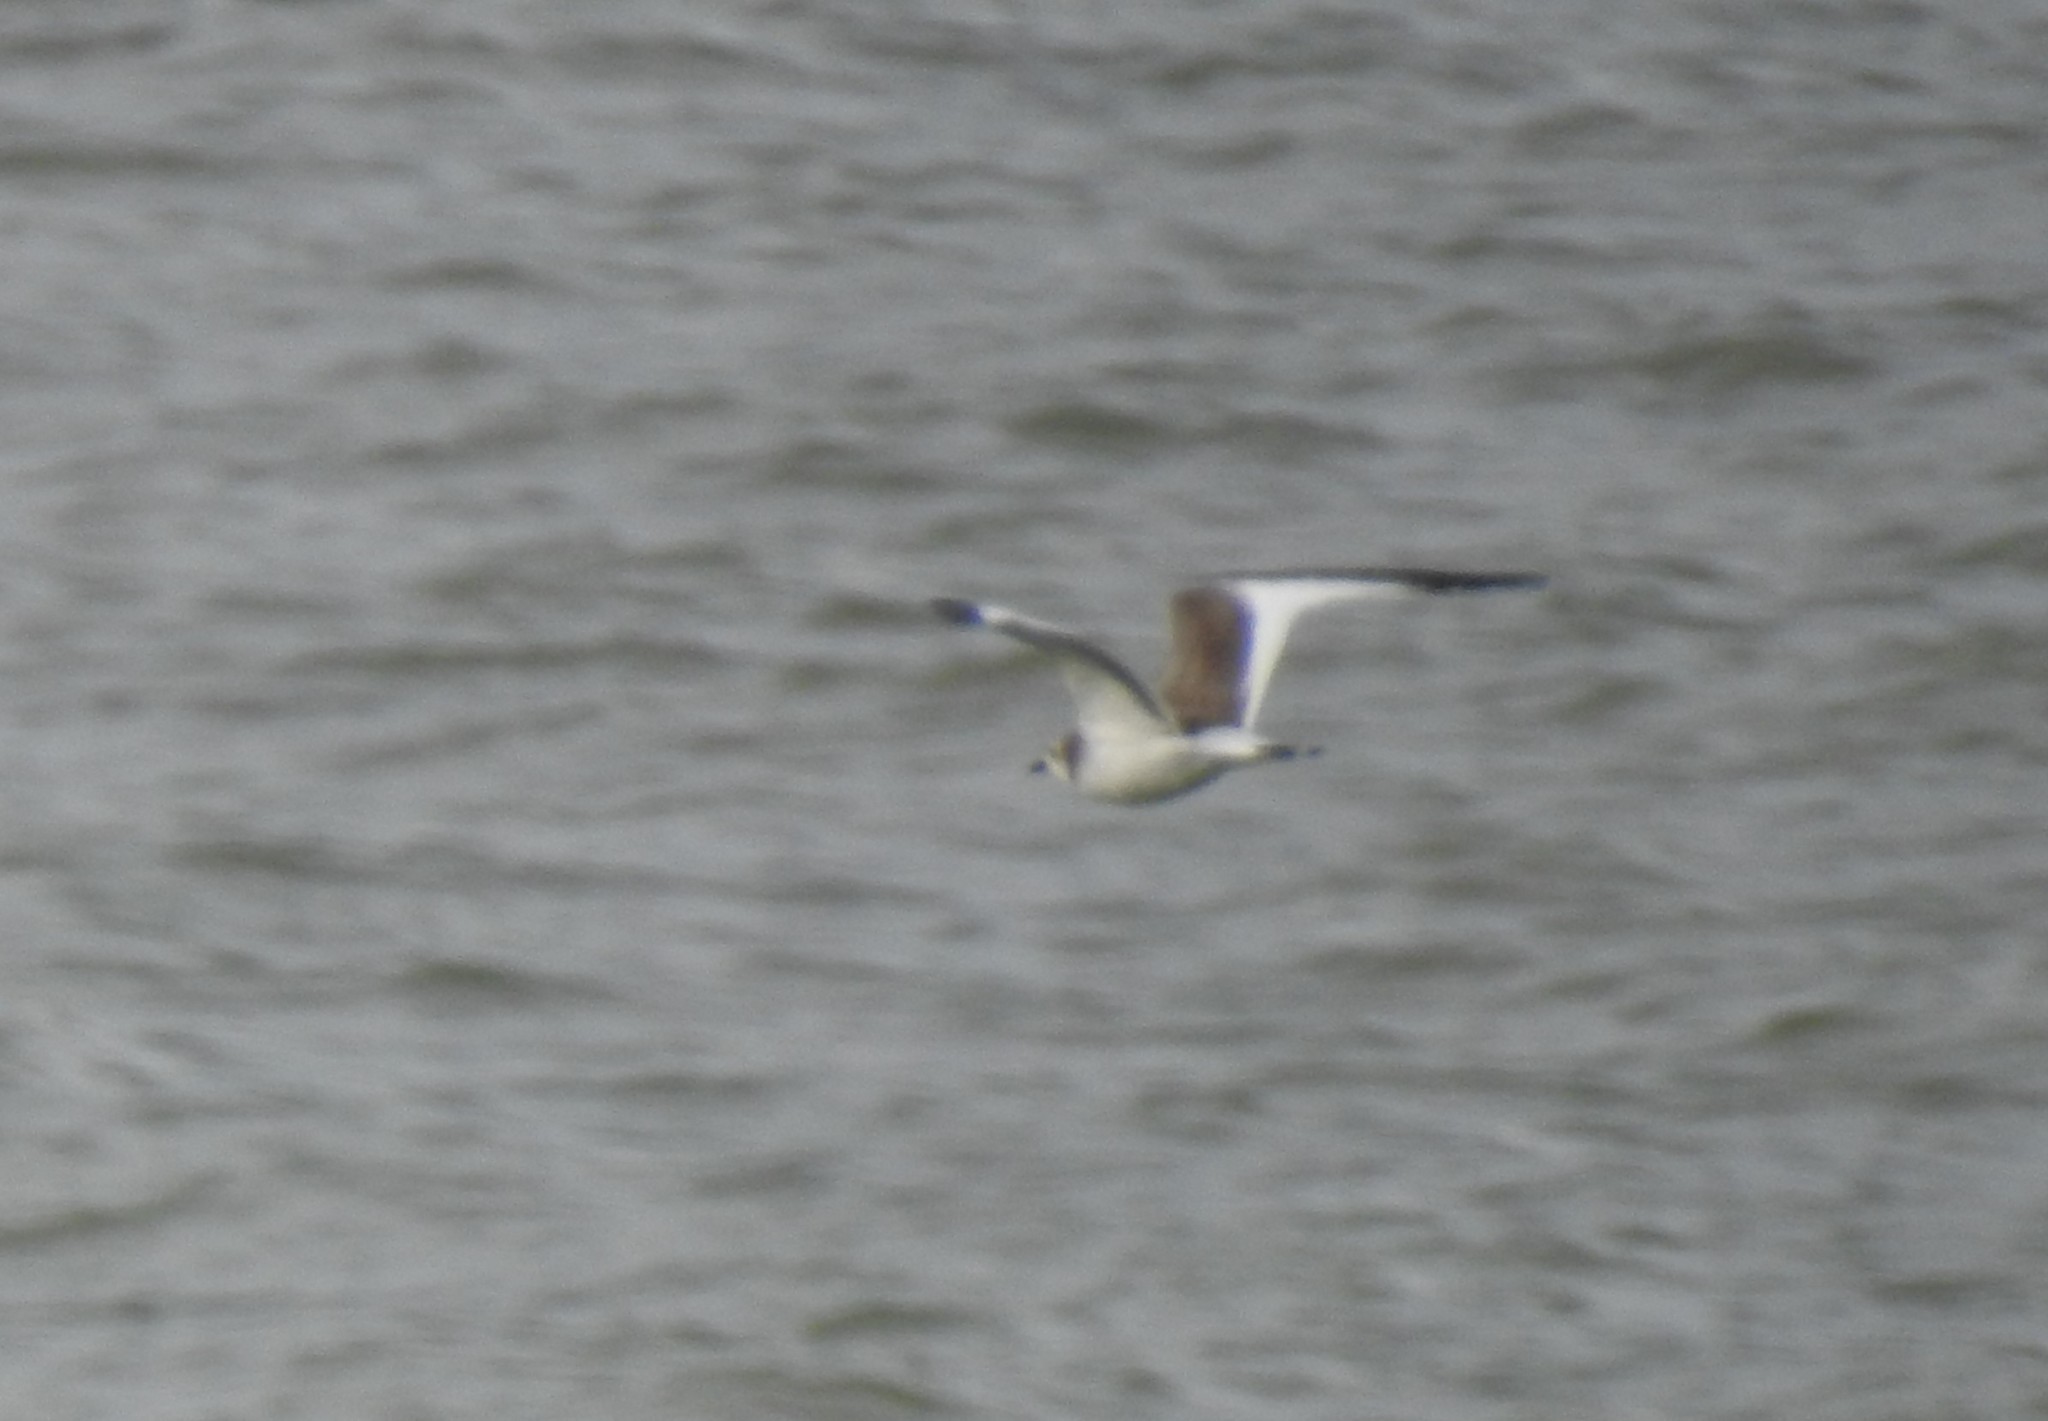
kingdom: Animalia
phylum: Chordata
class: Aves
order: Charadriiformes
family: Laridae
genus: Xema
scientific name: Xema sabini
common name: Sabine's gull
